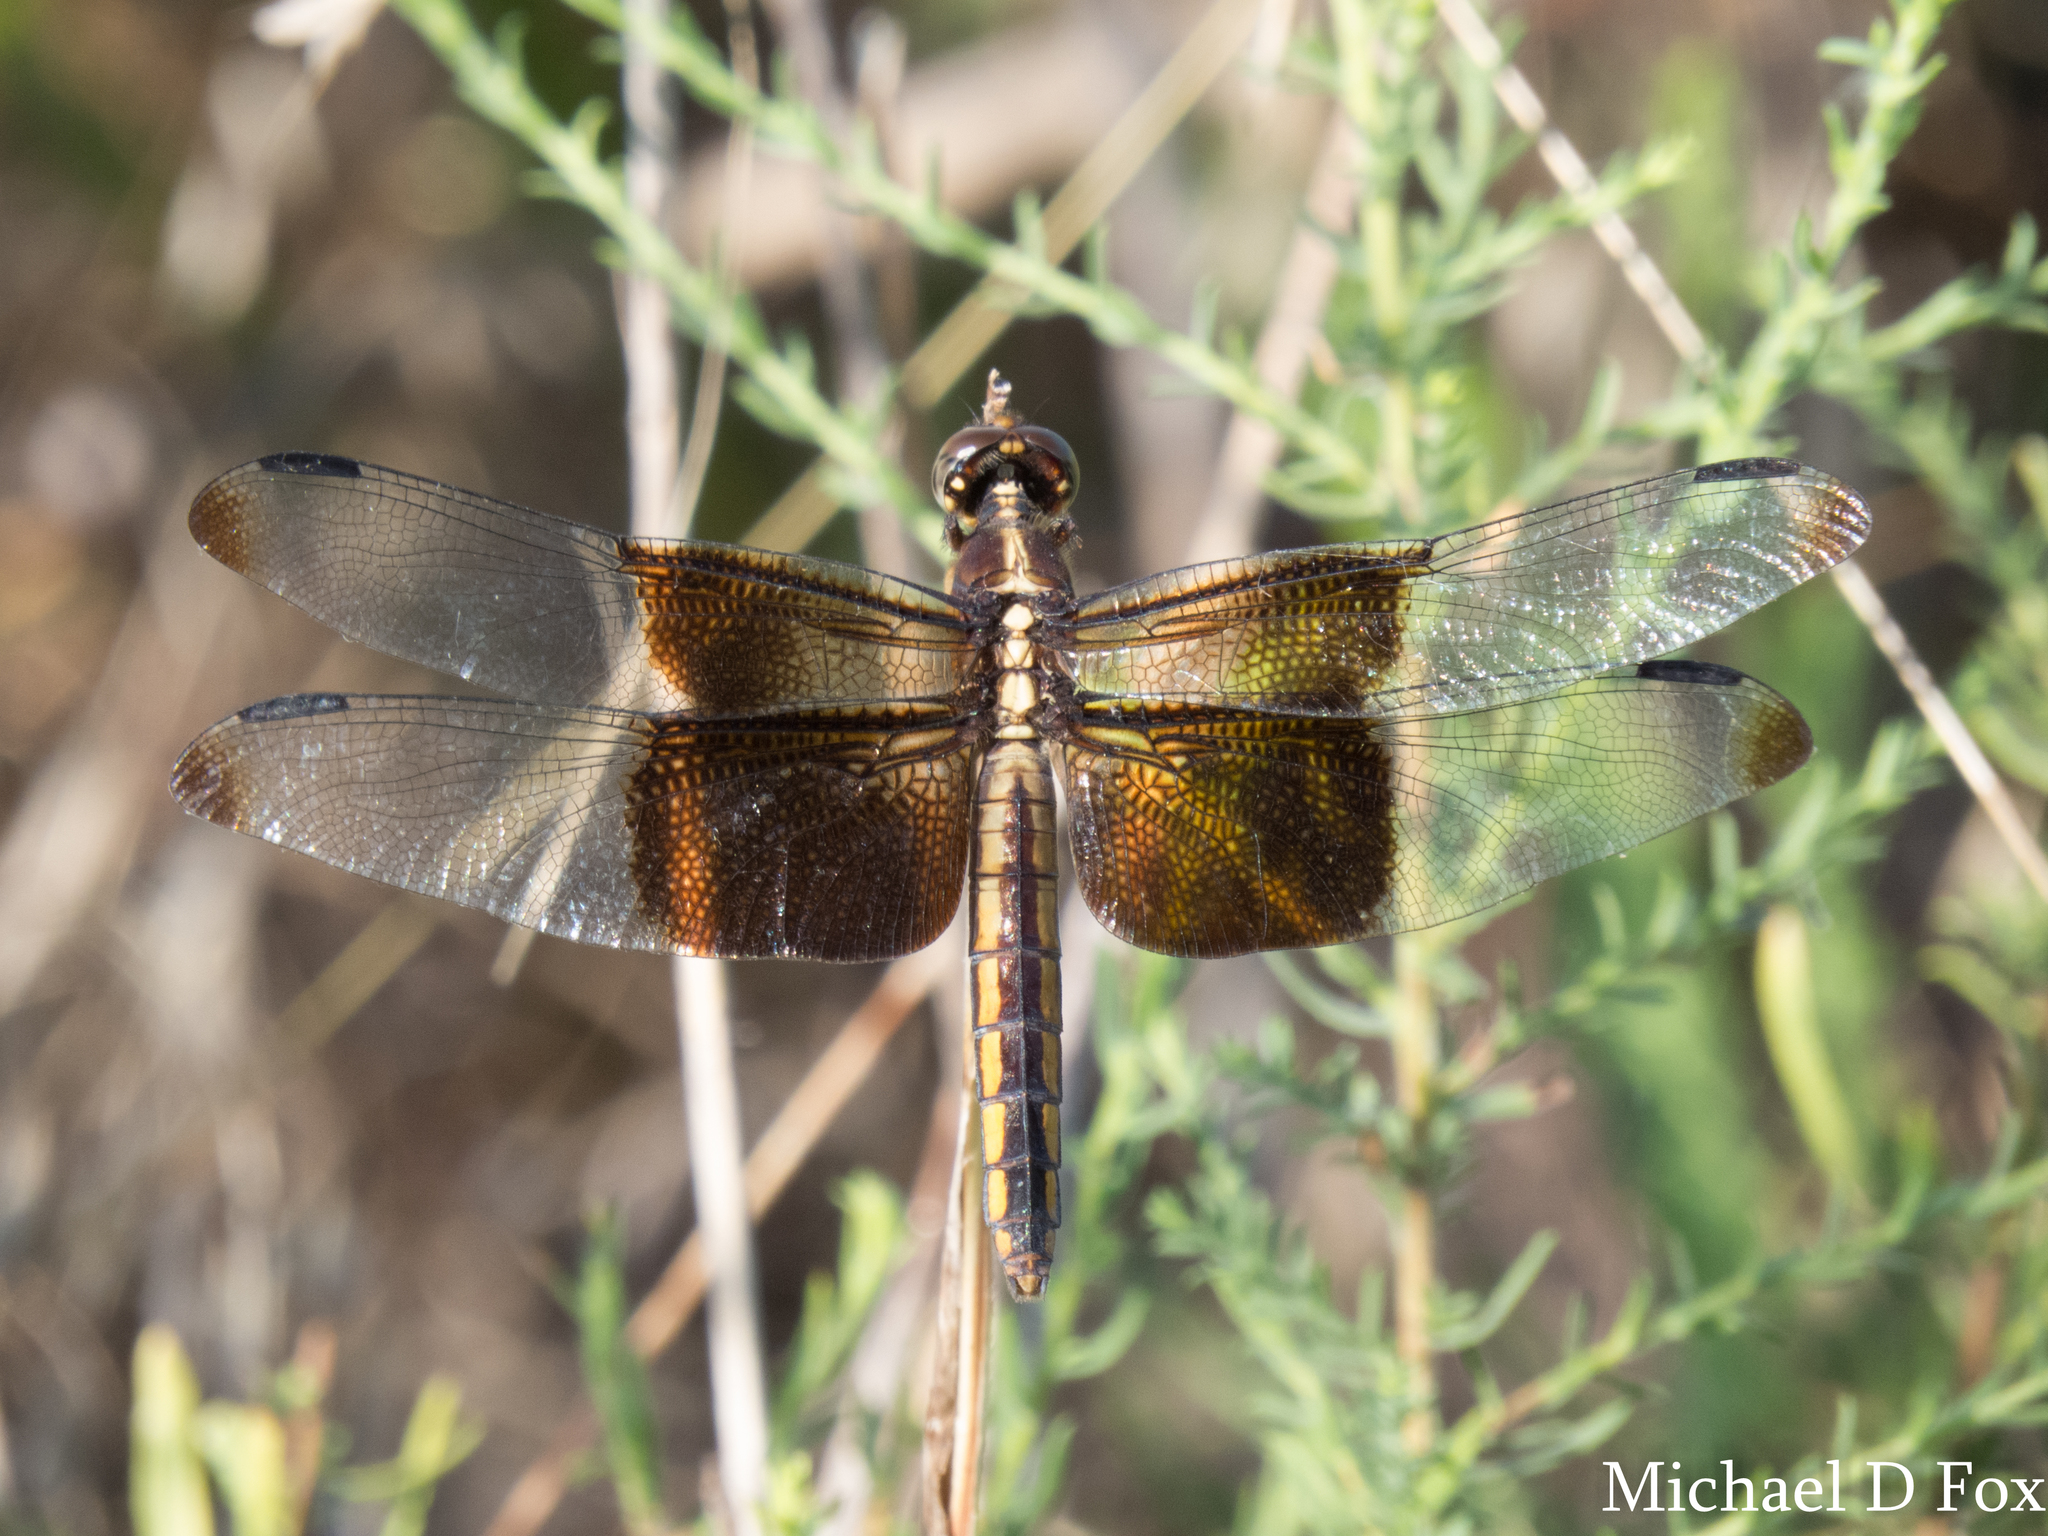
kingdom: Animalia
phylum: Arthropoda
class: Insecta
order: Odonata
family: Libellulidae
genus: Libellula
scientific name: Libellula luctuosa
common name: Widow skimmer
